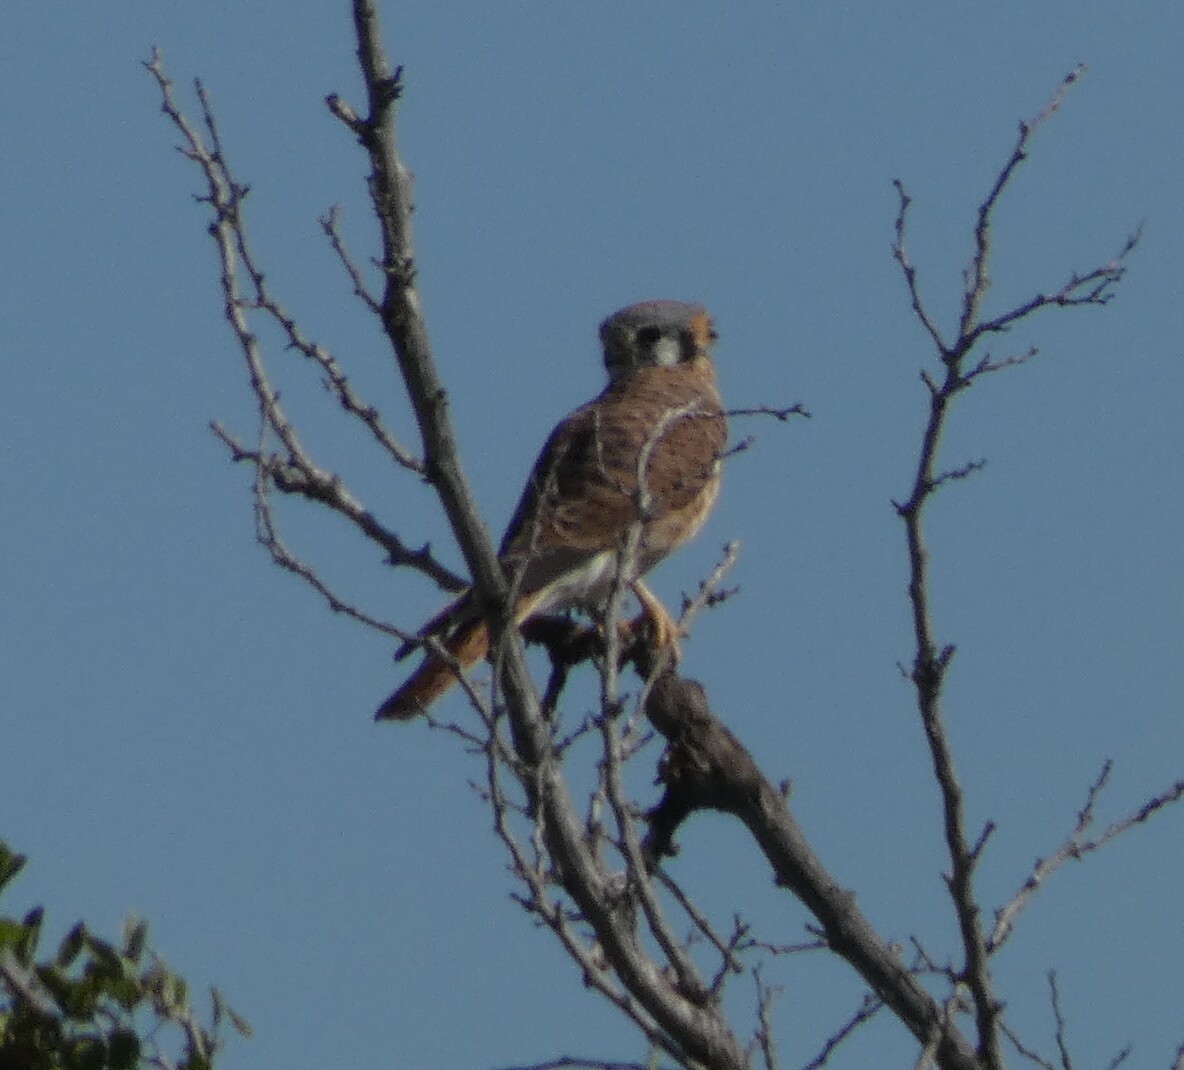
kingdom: Animalia
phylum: Chordata
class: Aves
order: Falconiformes
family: Falconidae
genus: Falco
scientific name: Falco sparverius
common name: American kestrel
